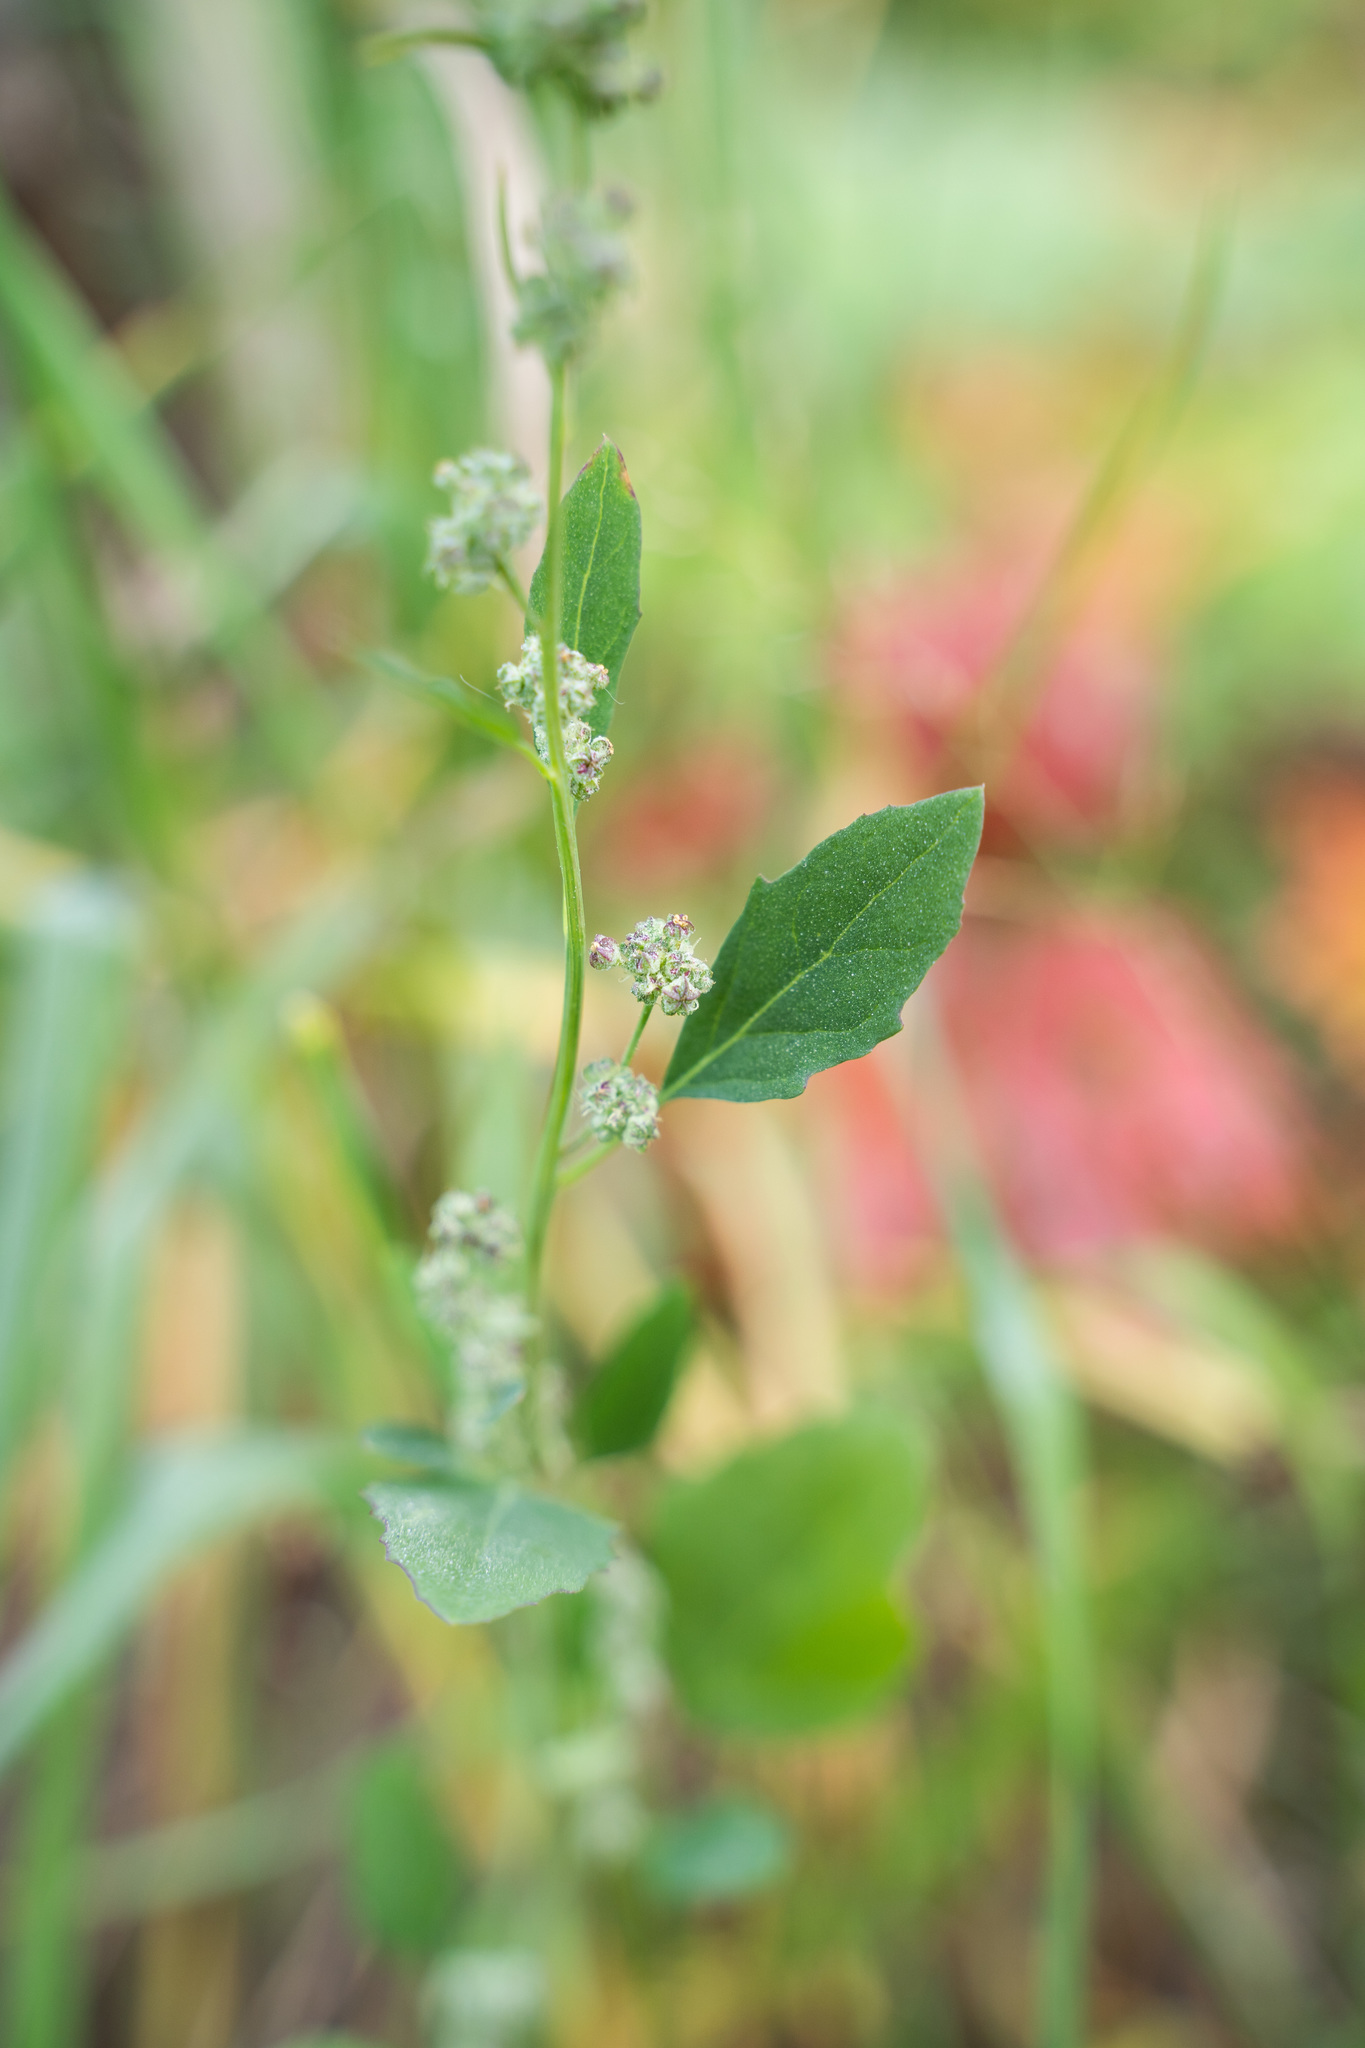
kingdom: Plantae
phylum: Tracheophyta
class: Magnoliopsida
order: Caryophyllales
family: Amaranthaceae
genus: Chenopodium
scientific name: Chenopodium album
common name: Fat-hen
